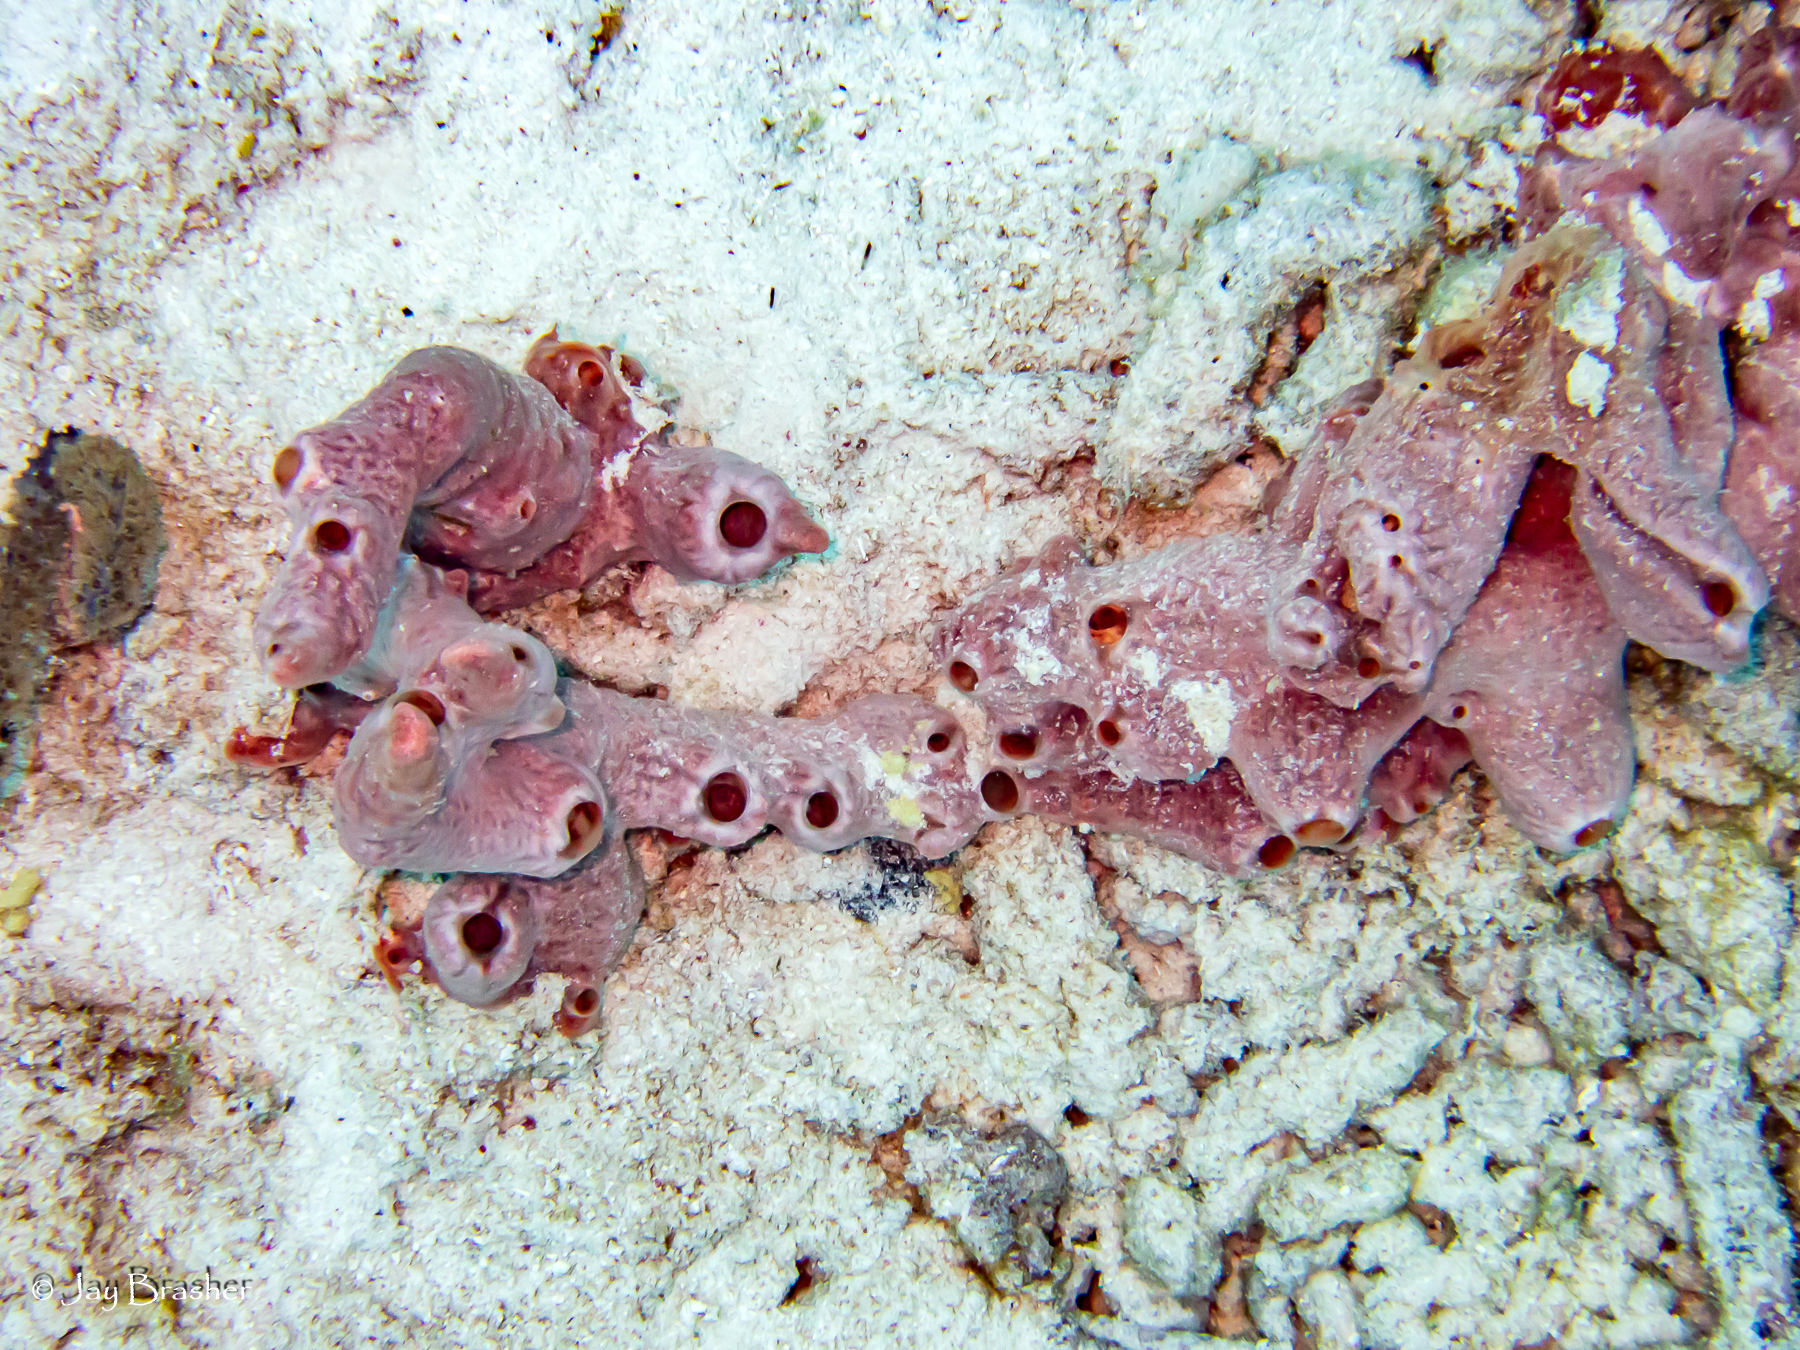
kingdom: Animalia
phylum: Porifera
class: Demospongiae
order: Poecilosclerida
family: Desmacididae
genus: Desmapsamma
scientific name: Desmapsamma anchorata
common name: Lumpy overgrowing sponge
